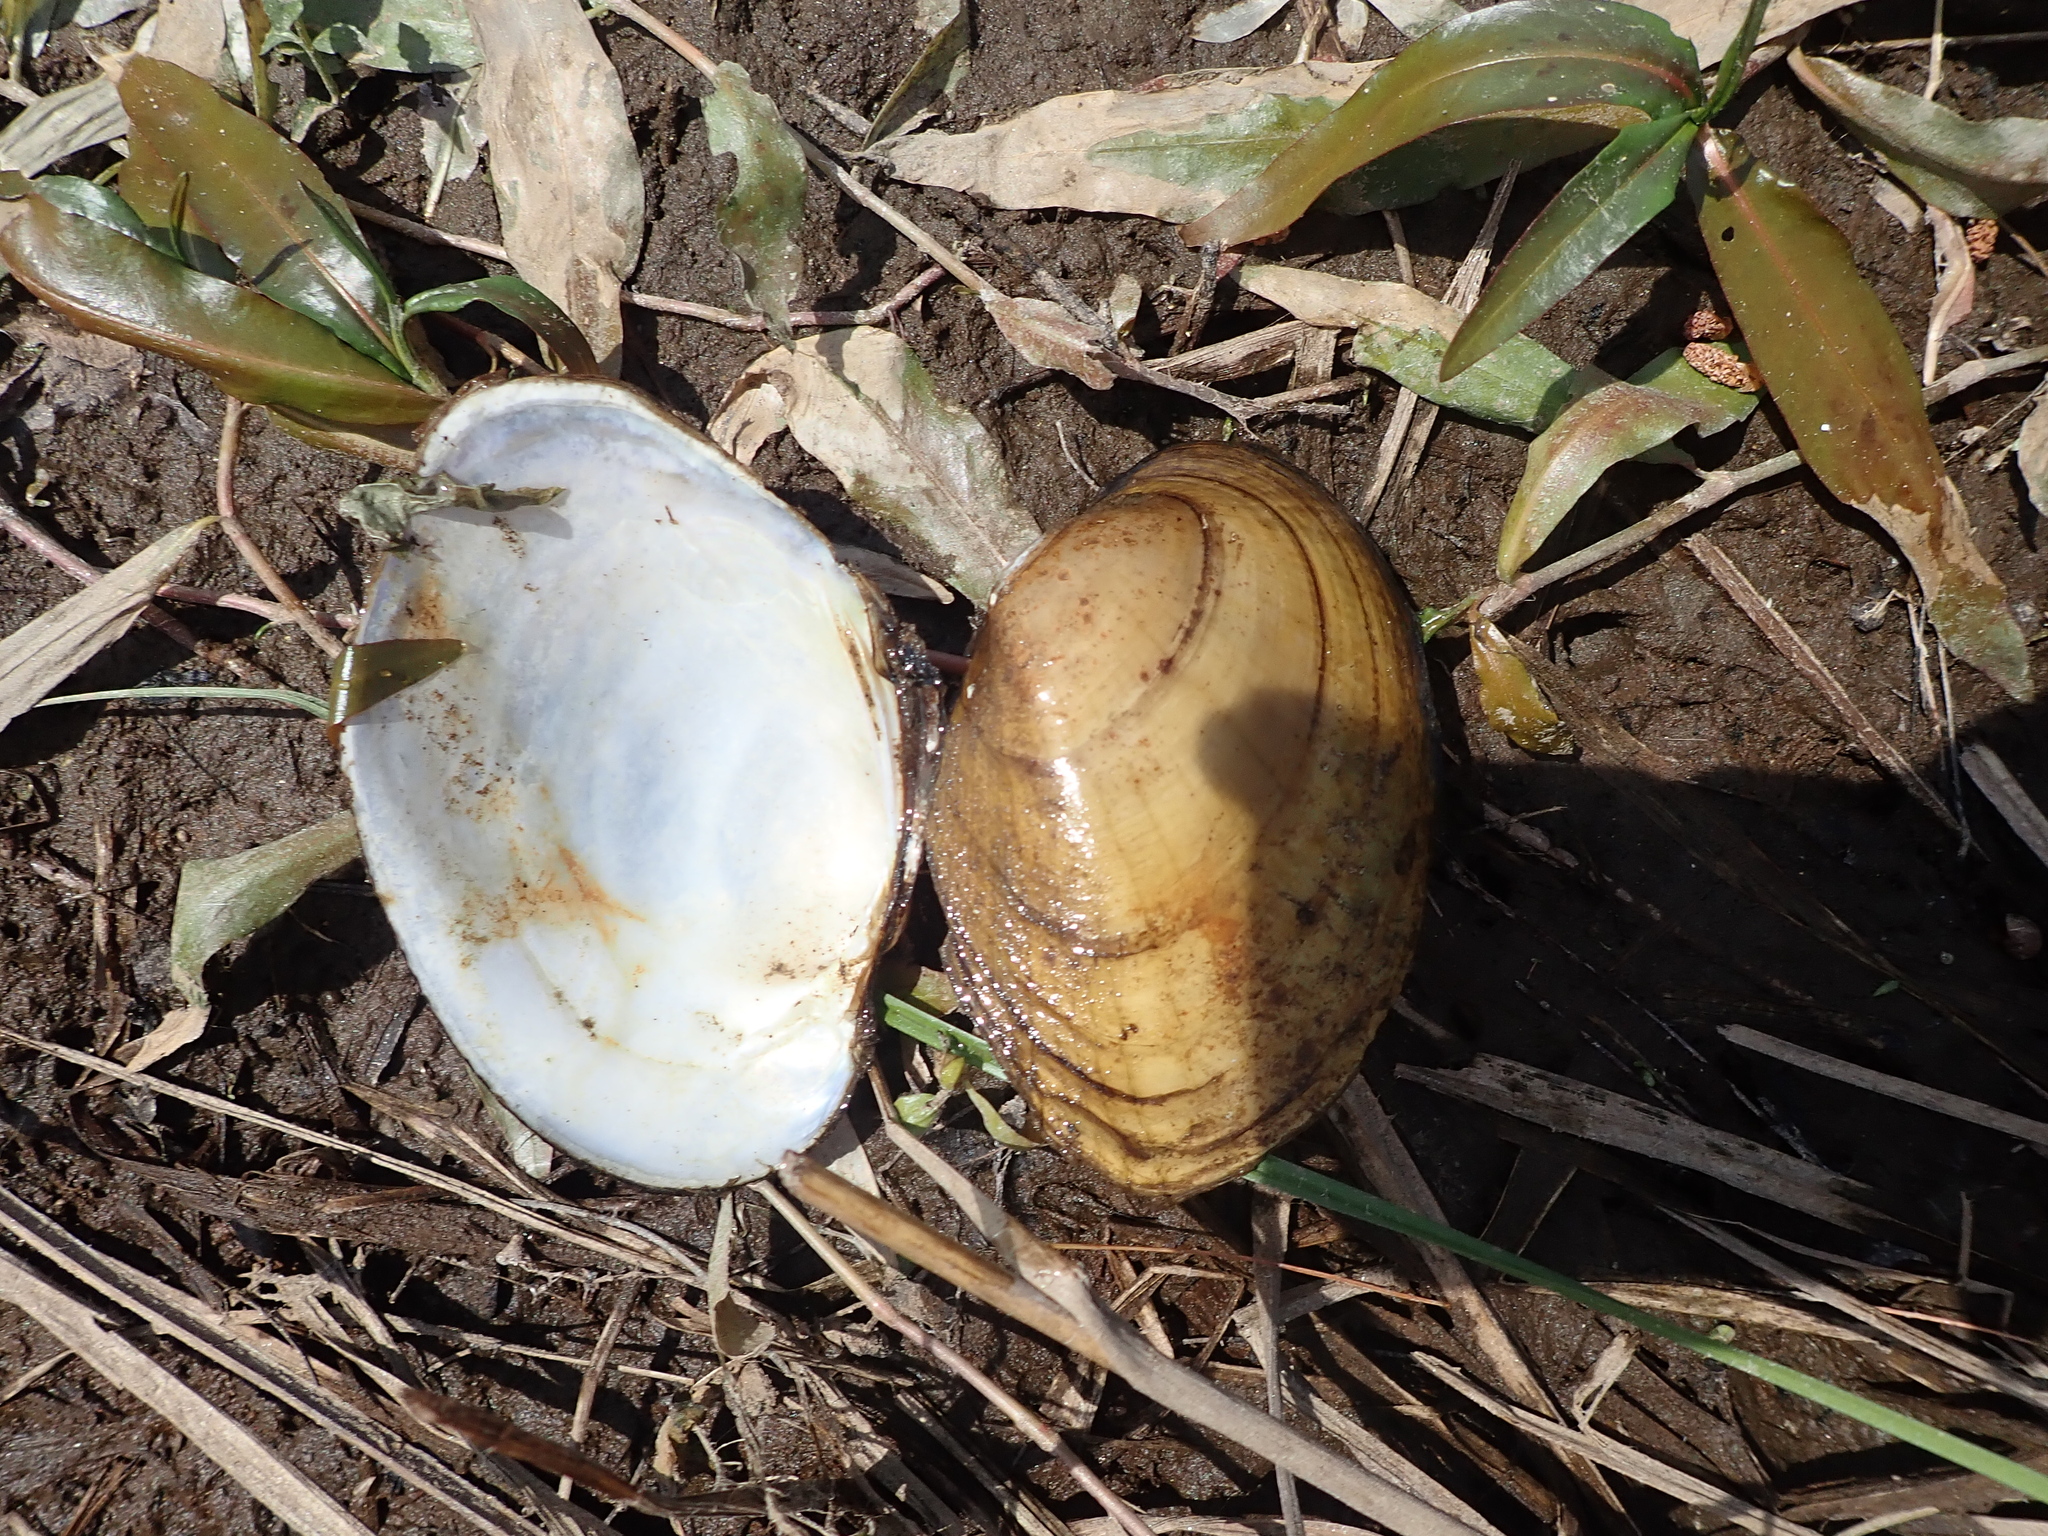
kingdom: Animalia
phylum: Mollusca
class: Bivalvia
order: Unionida
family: Unionidae
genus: Lampsilis
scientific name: Lampsilis cardium
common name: Plain pocketbook
